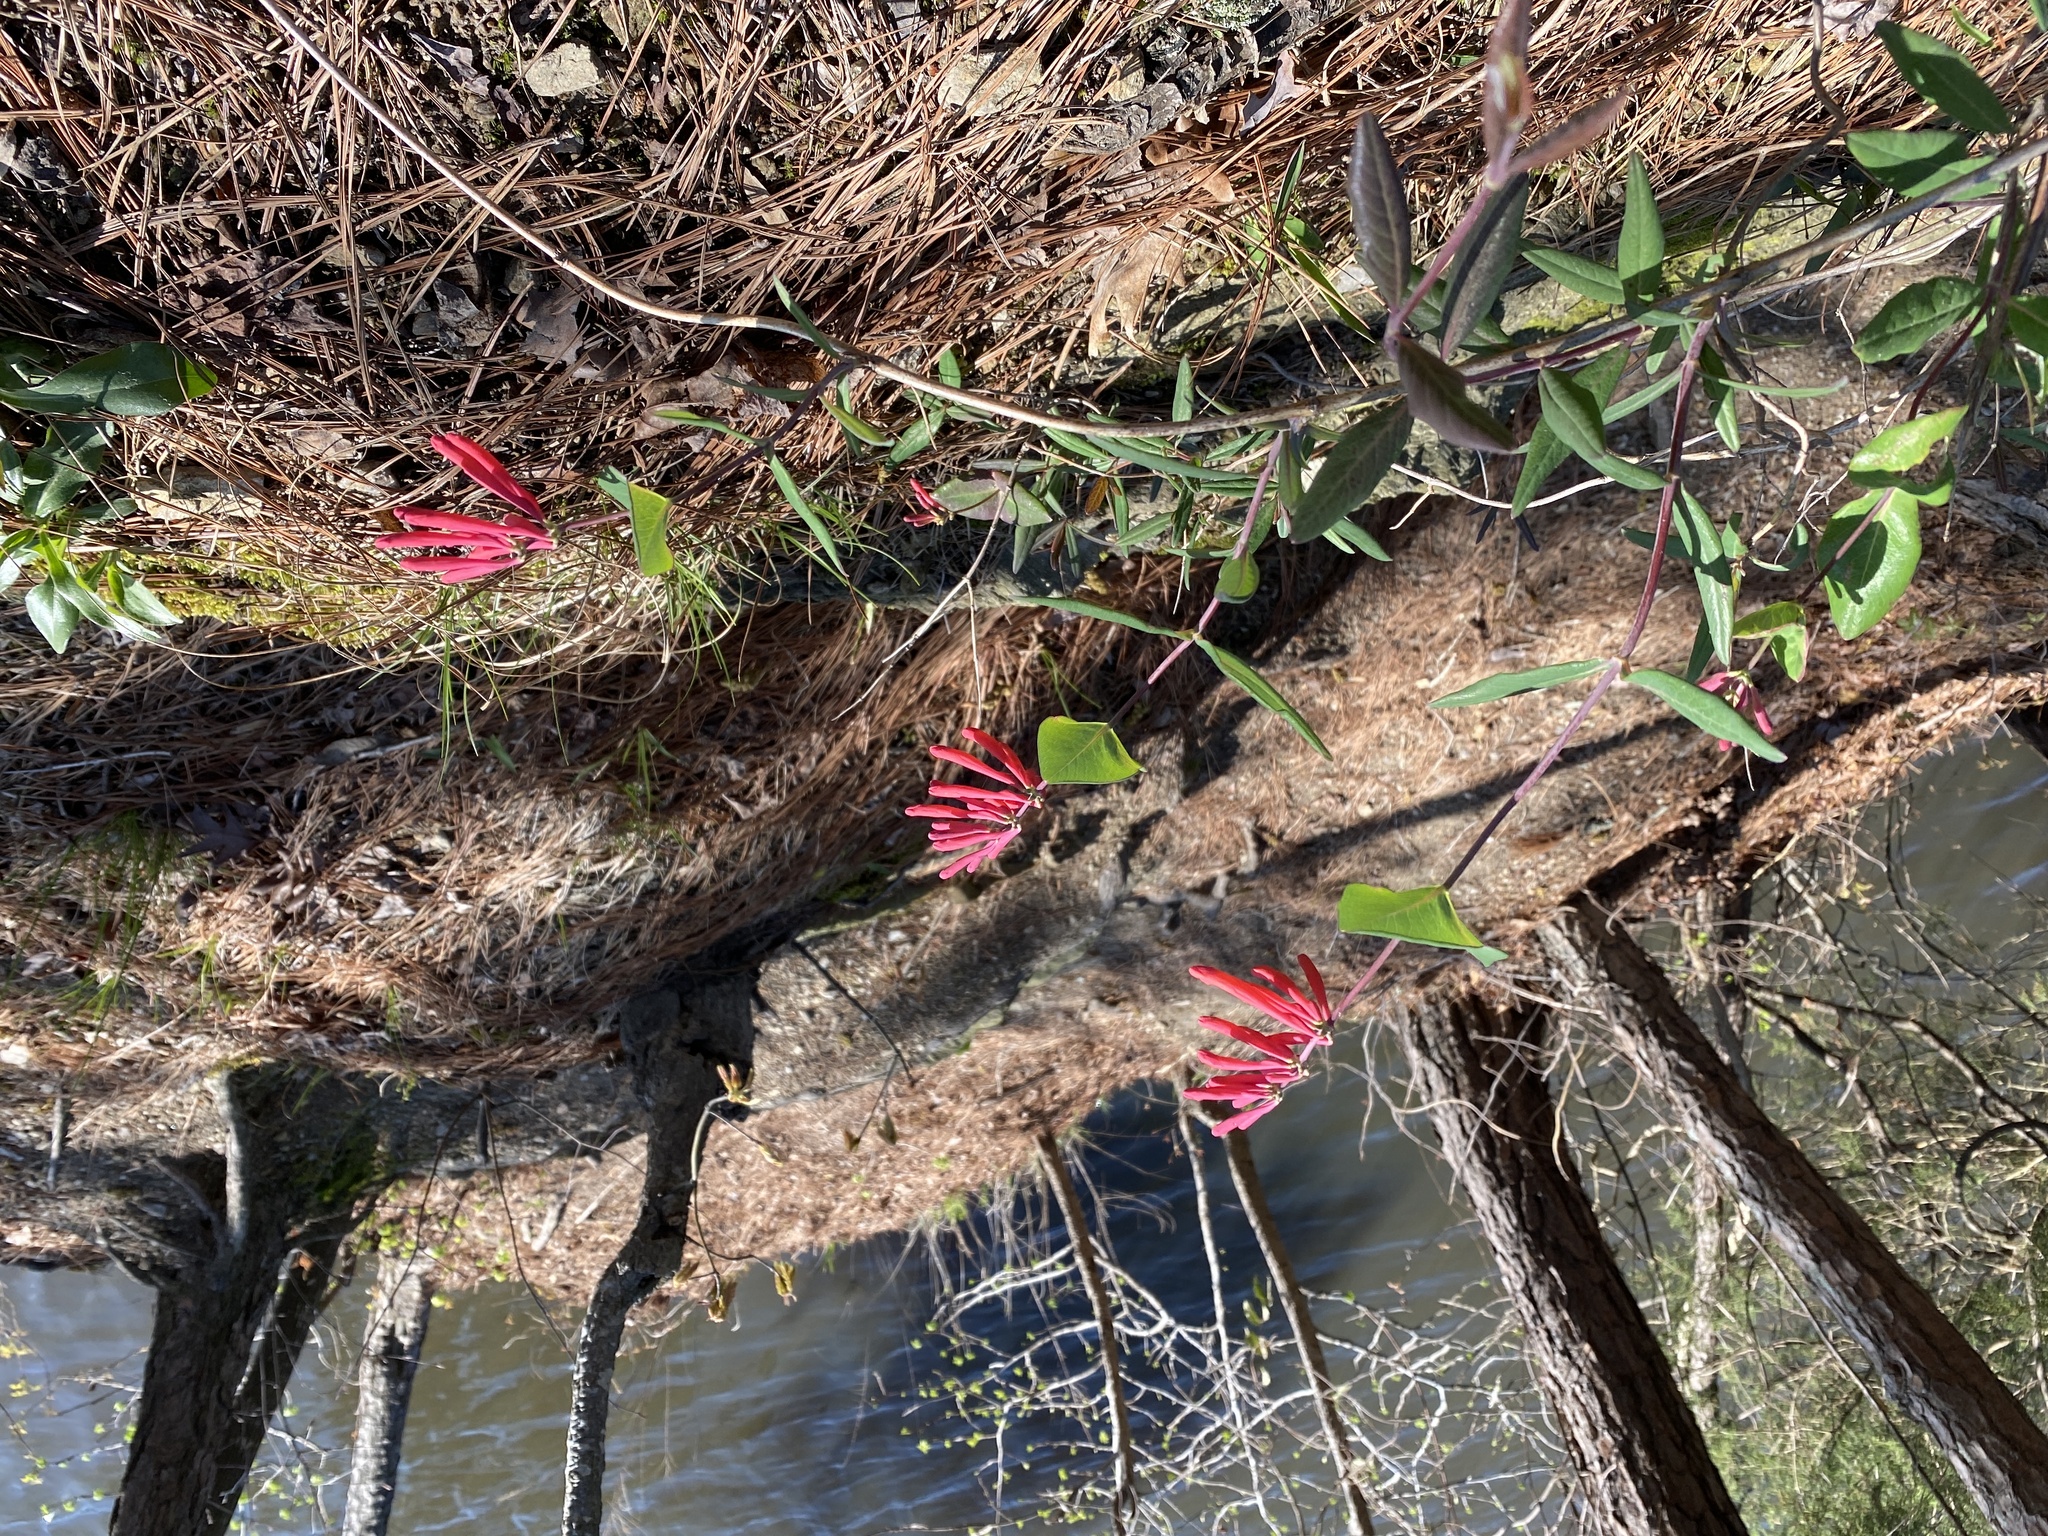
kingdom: Plantae
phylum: Tracheophyta
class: Magnoliopsida
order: Dipsacales
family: Caprifoliaceae
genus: Lonicera
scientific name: Lonicera sempervirens
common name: Coral honeysuckle
